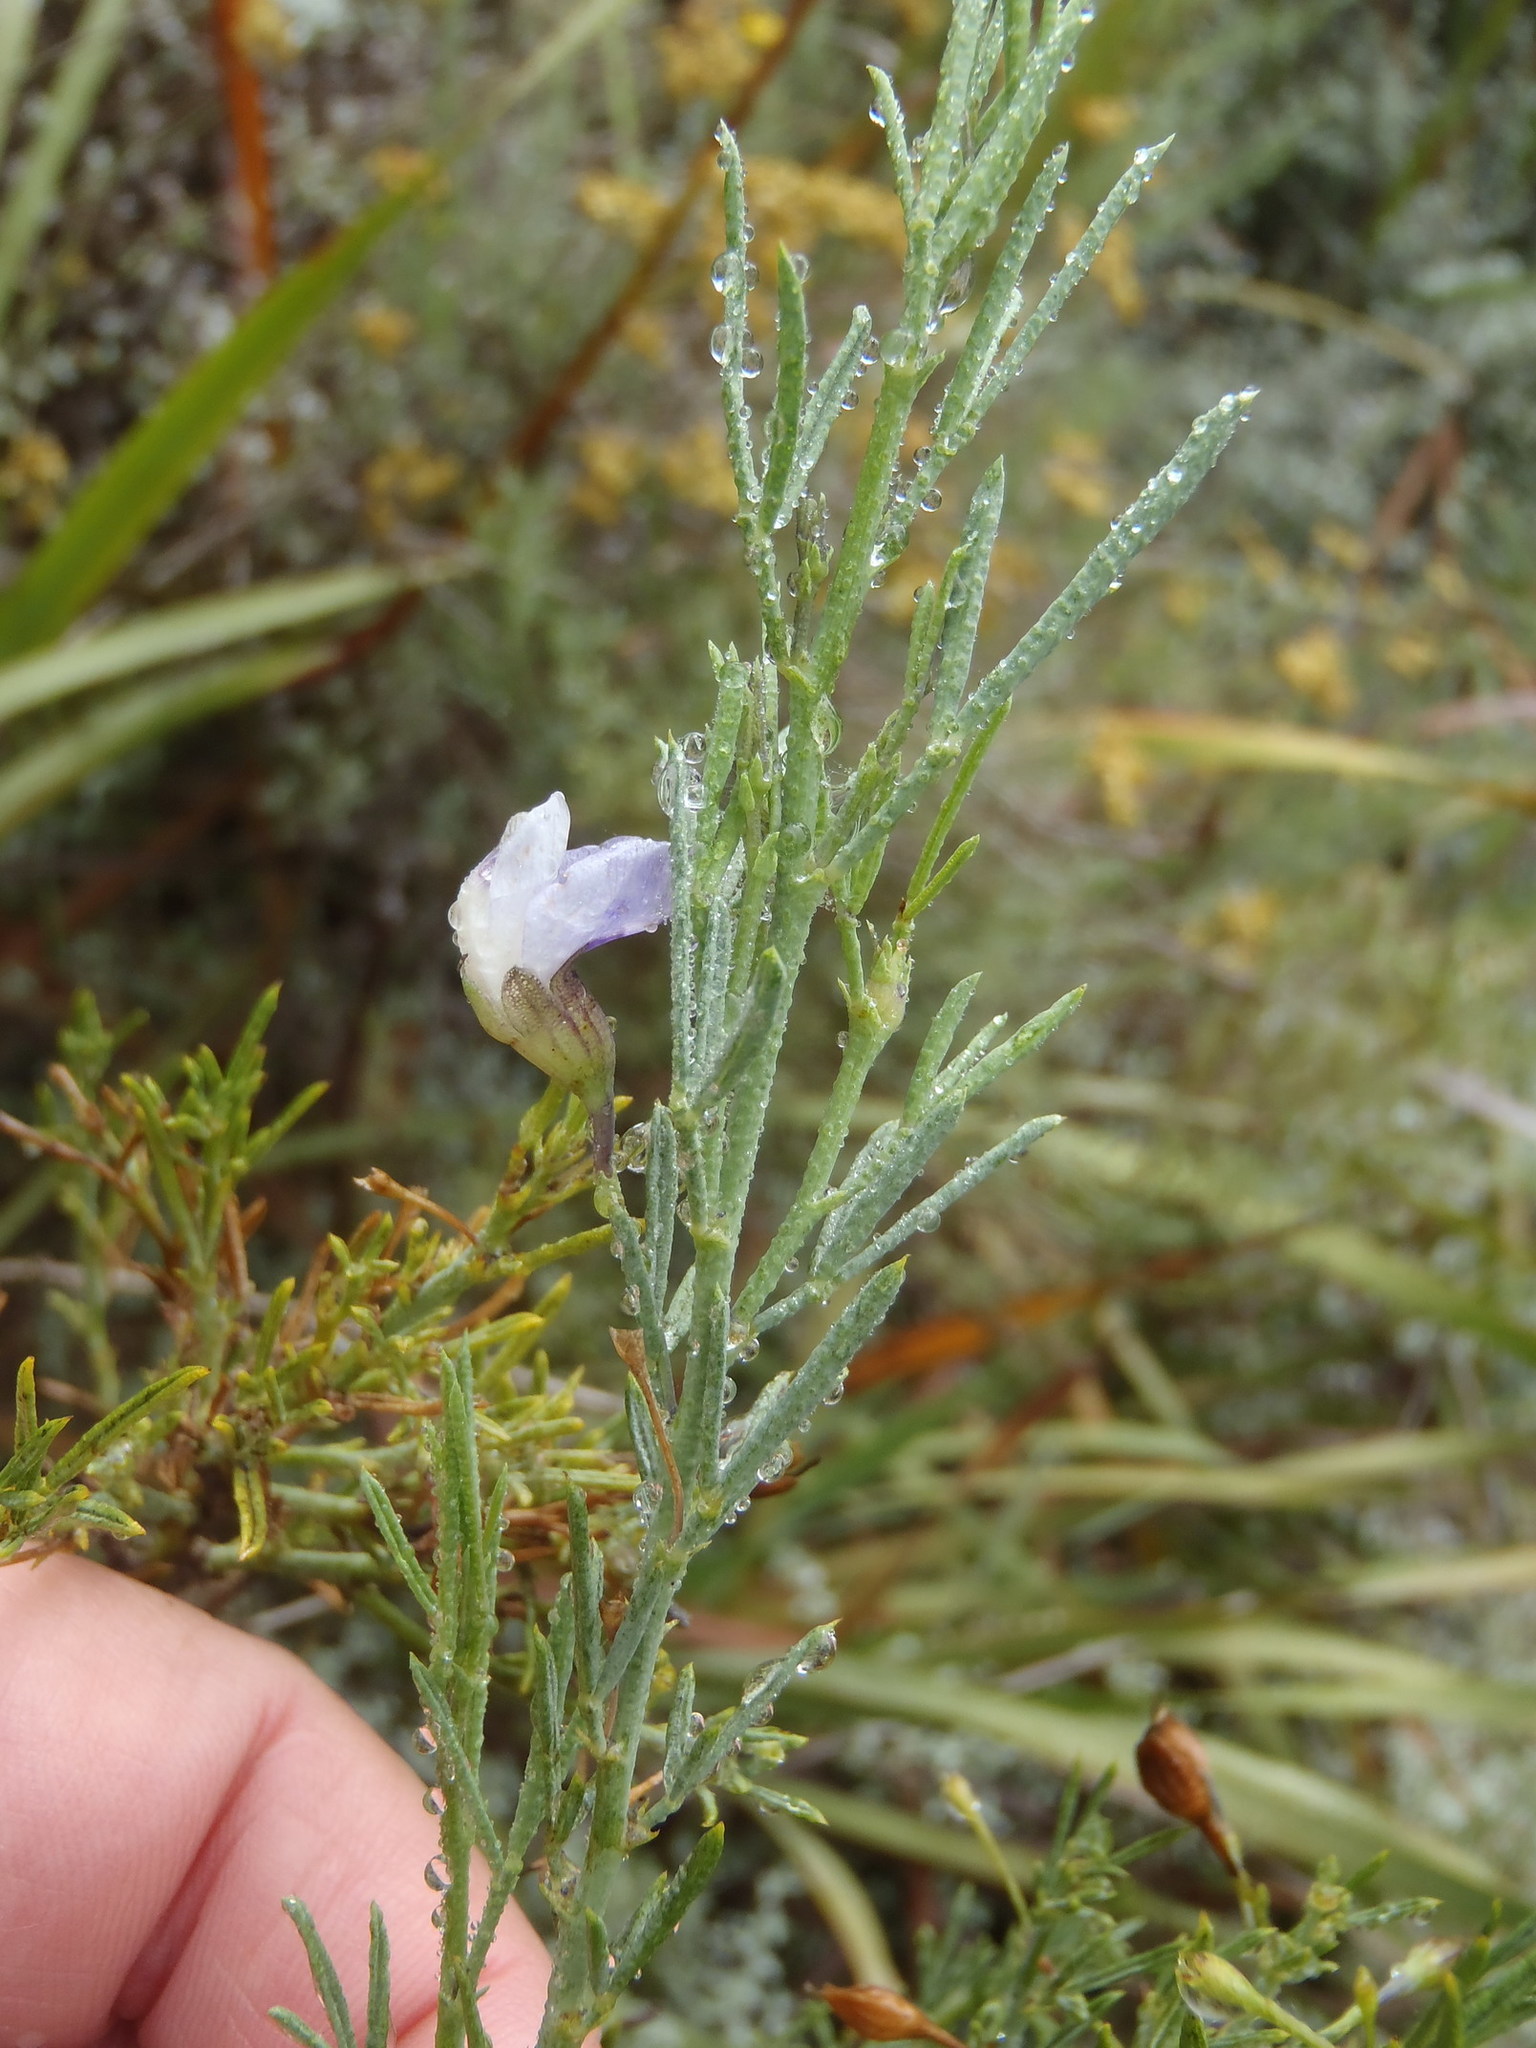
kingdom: Plantae
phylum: Tracheophyta
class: Magnoliopsida
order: Fabales
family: Fabaceae
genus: Psoralea
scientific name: Psoralea
